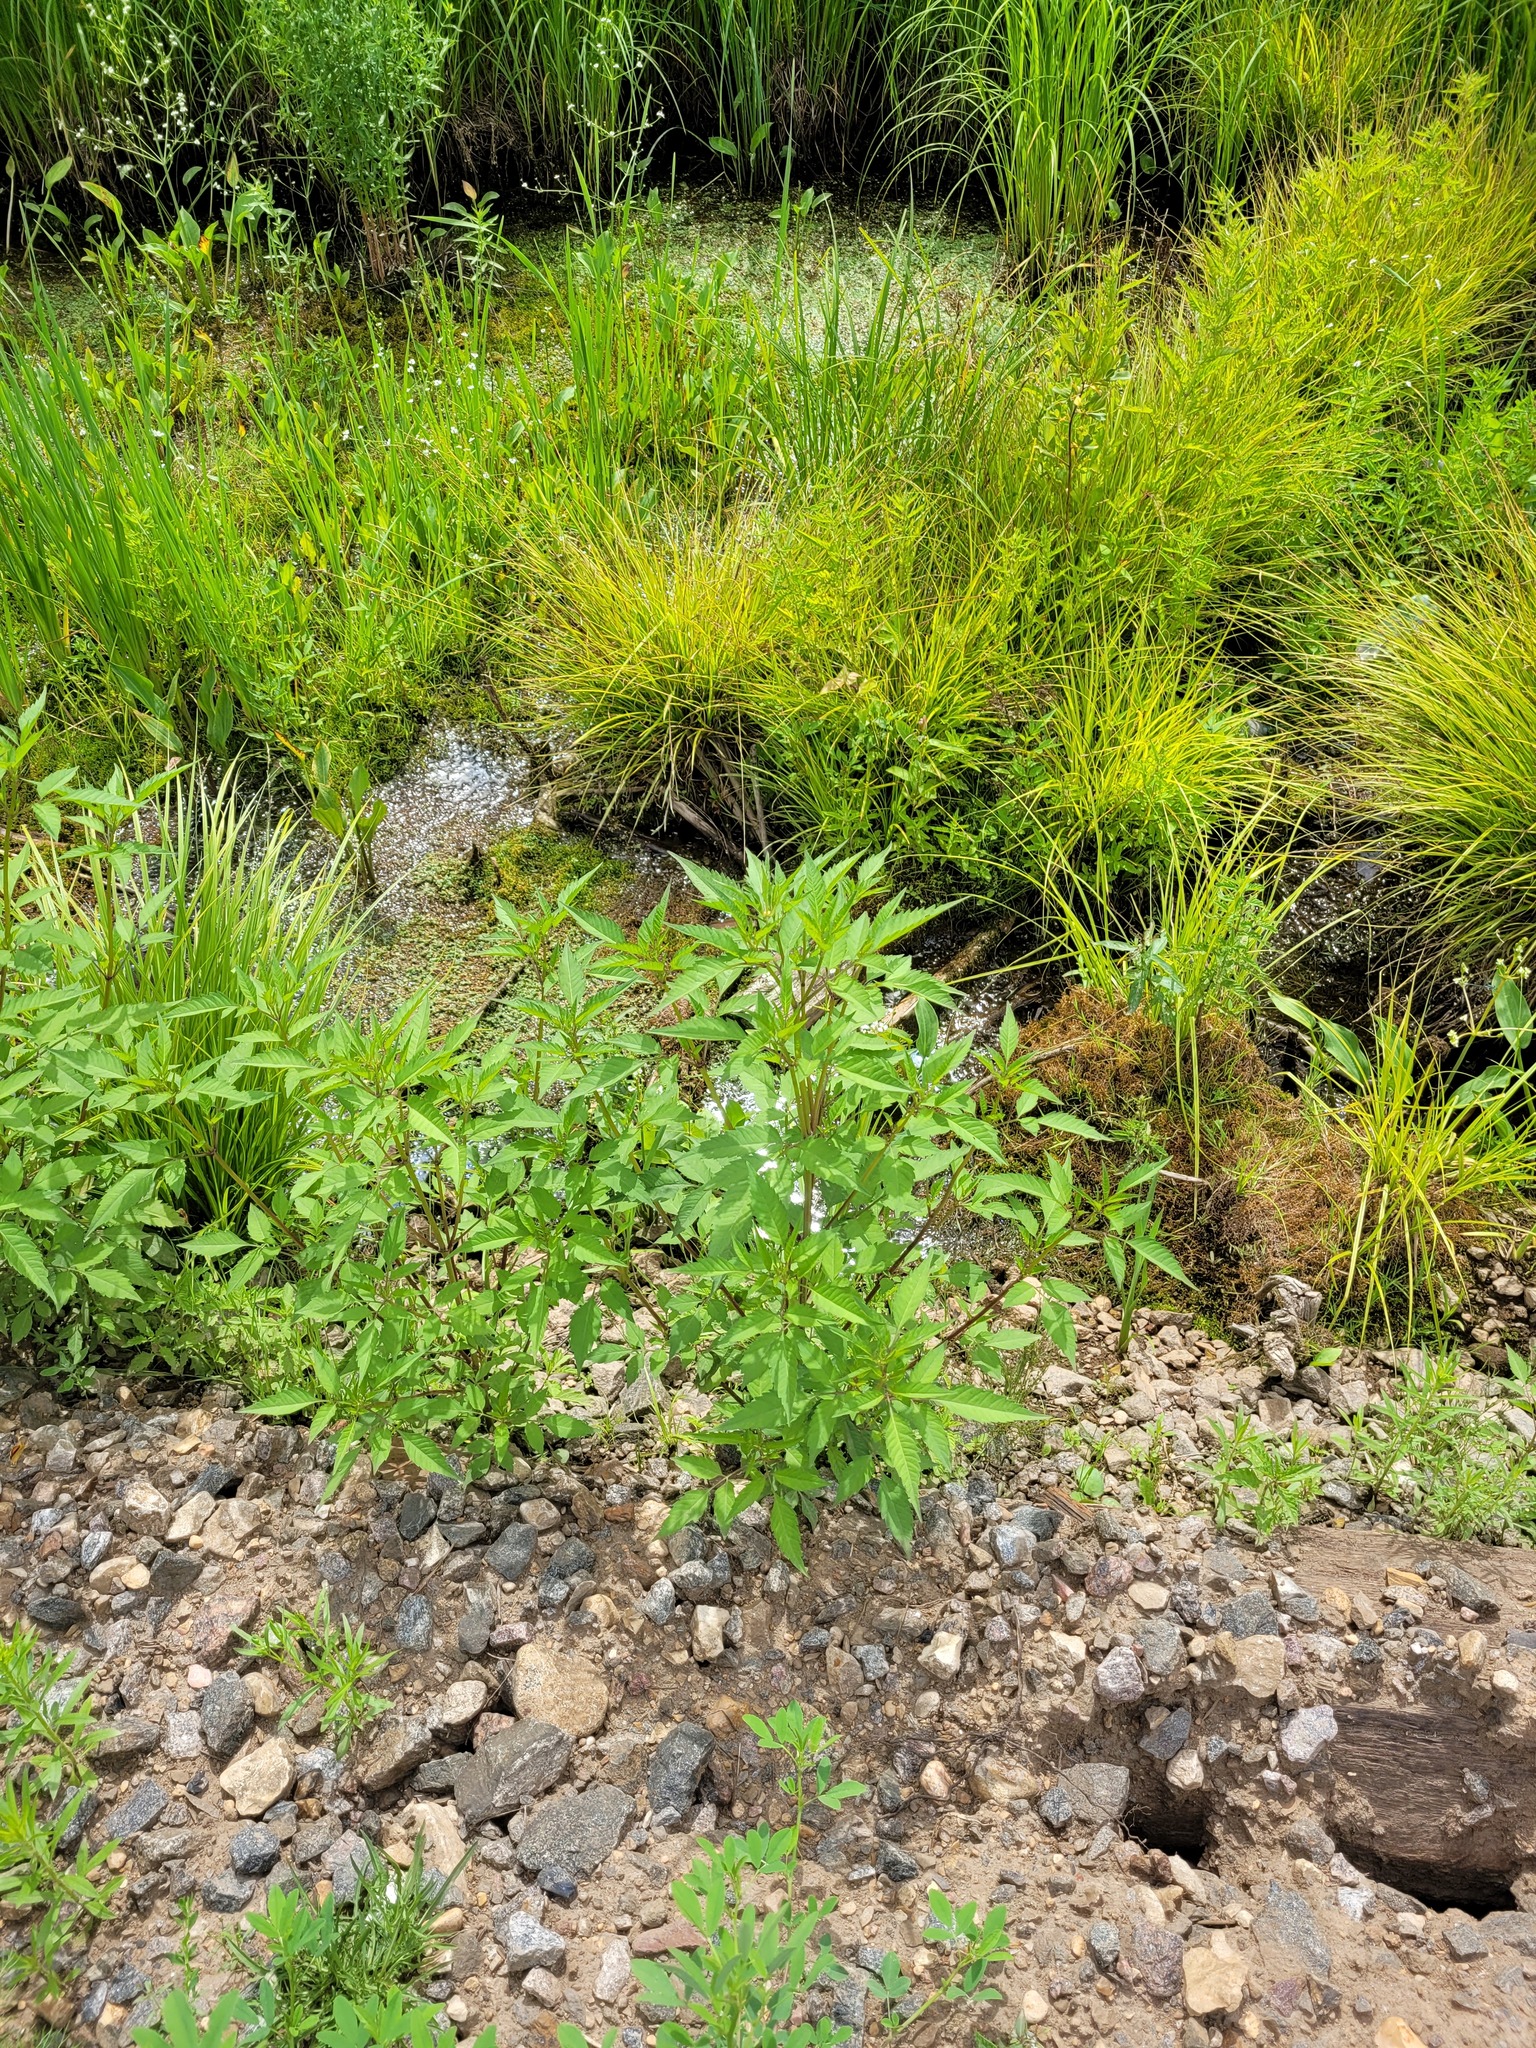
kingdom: Plantae
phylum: Tracheophyta
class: Magnoliopsida
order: Asterales
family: Asteraceae
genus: Bidens
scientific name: Bidens frondosa
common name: Beggarticks
